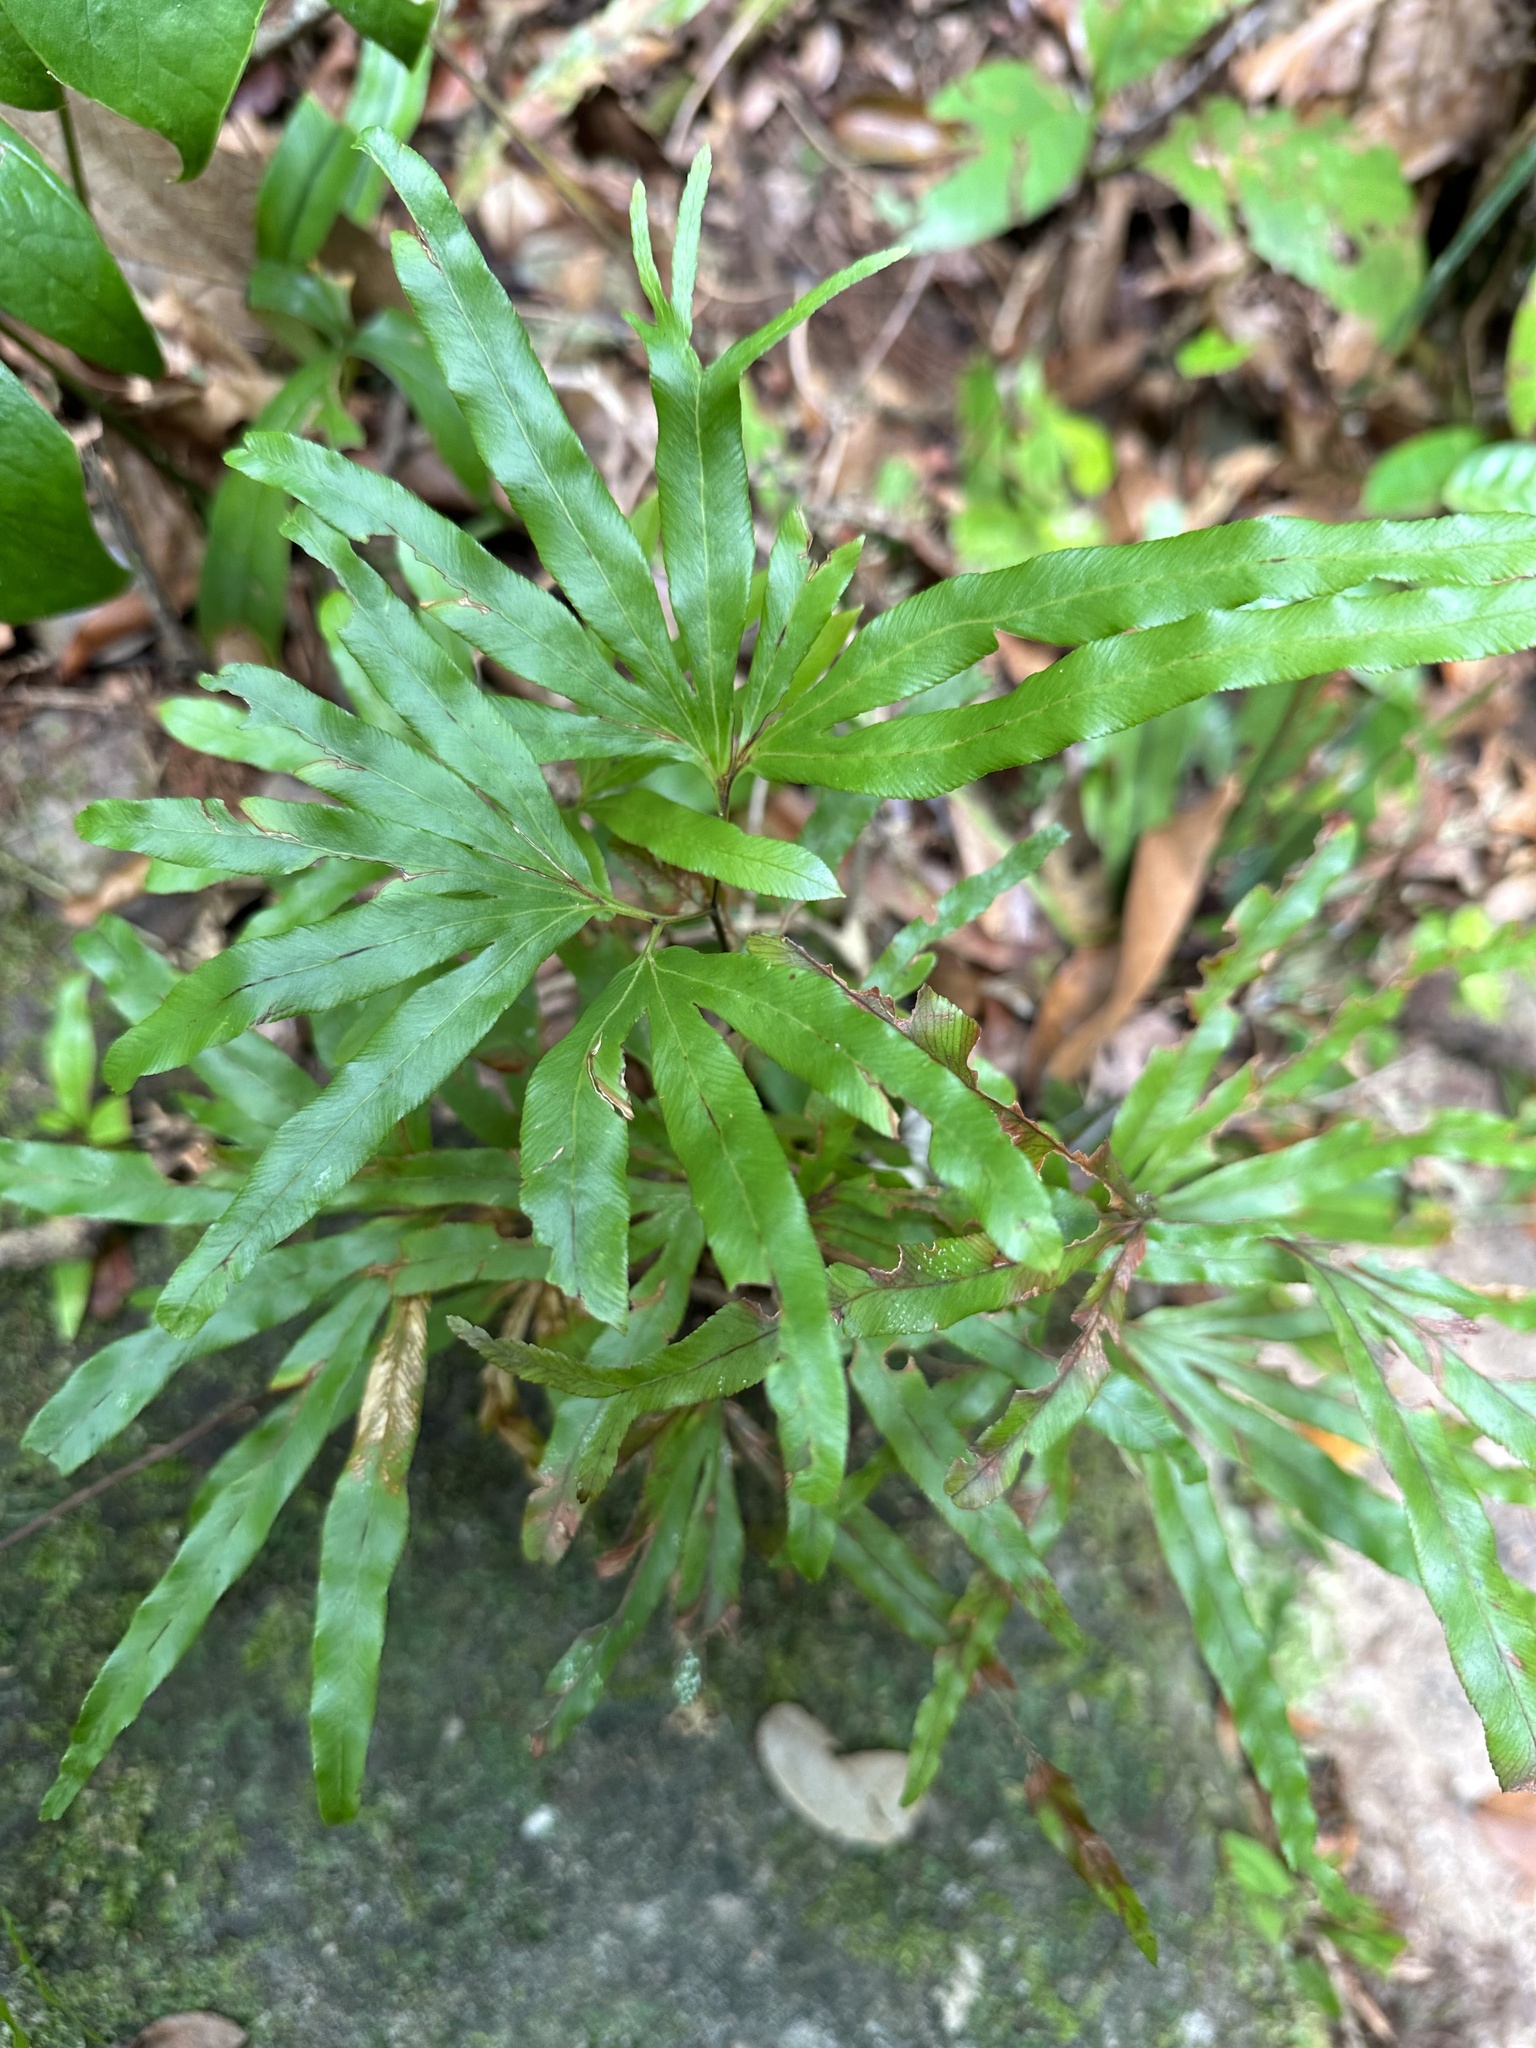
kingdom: Plantae
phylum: Tracheophyta
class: Polypodiopsida
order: Schizaeales
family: Lygodiaceae
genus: Lygodium
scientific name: Lygodium longifolium
